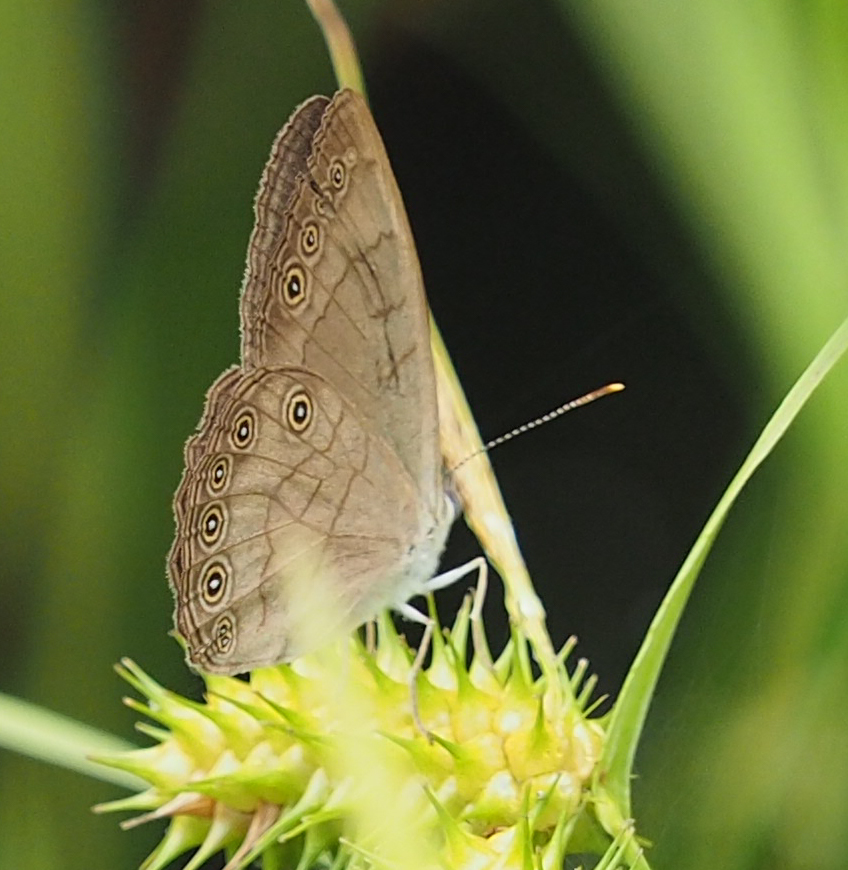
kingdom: Animalia
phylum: Arthropoda
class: Insecta
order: Lepidoptera
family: Nymphalidae
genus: Lethe
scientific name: Lethe eurydice
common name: Eyed brown
